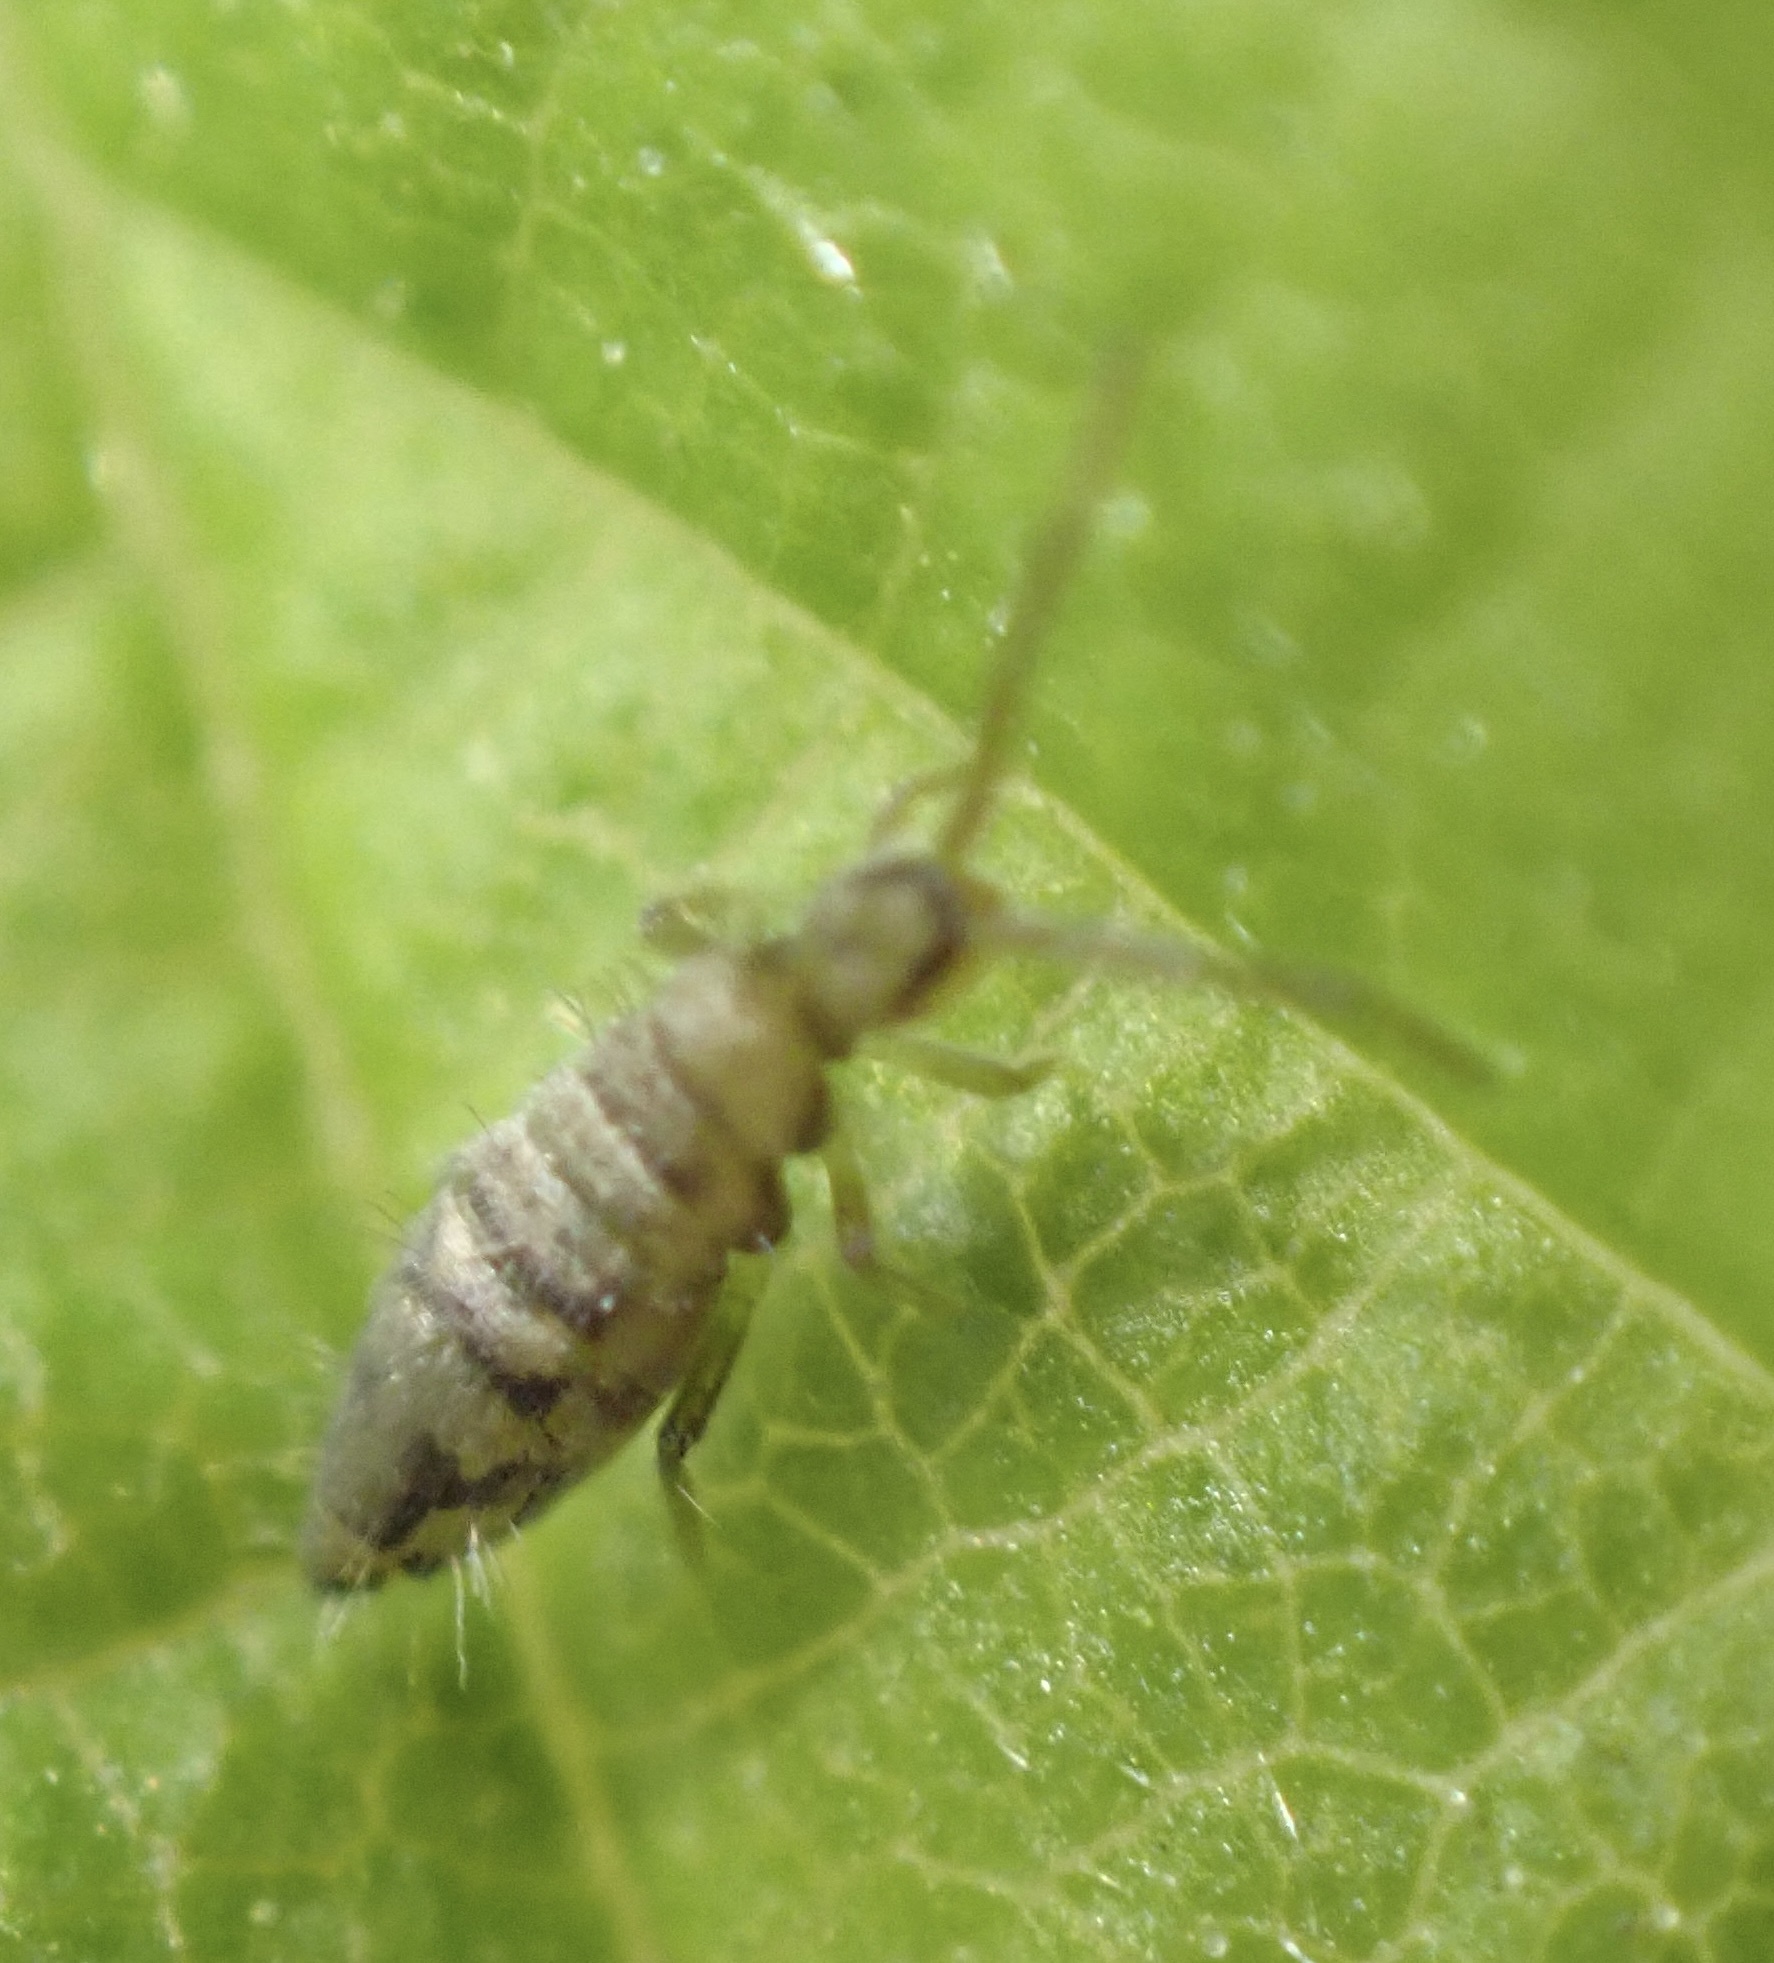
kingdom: Animalia
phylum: Arthropoda
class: Collembola
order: Entomobryomorpha
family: Entomobryidae
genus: Entomobrya
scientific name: Entomobrya nivalis
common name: Cosmopolitan springtail
